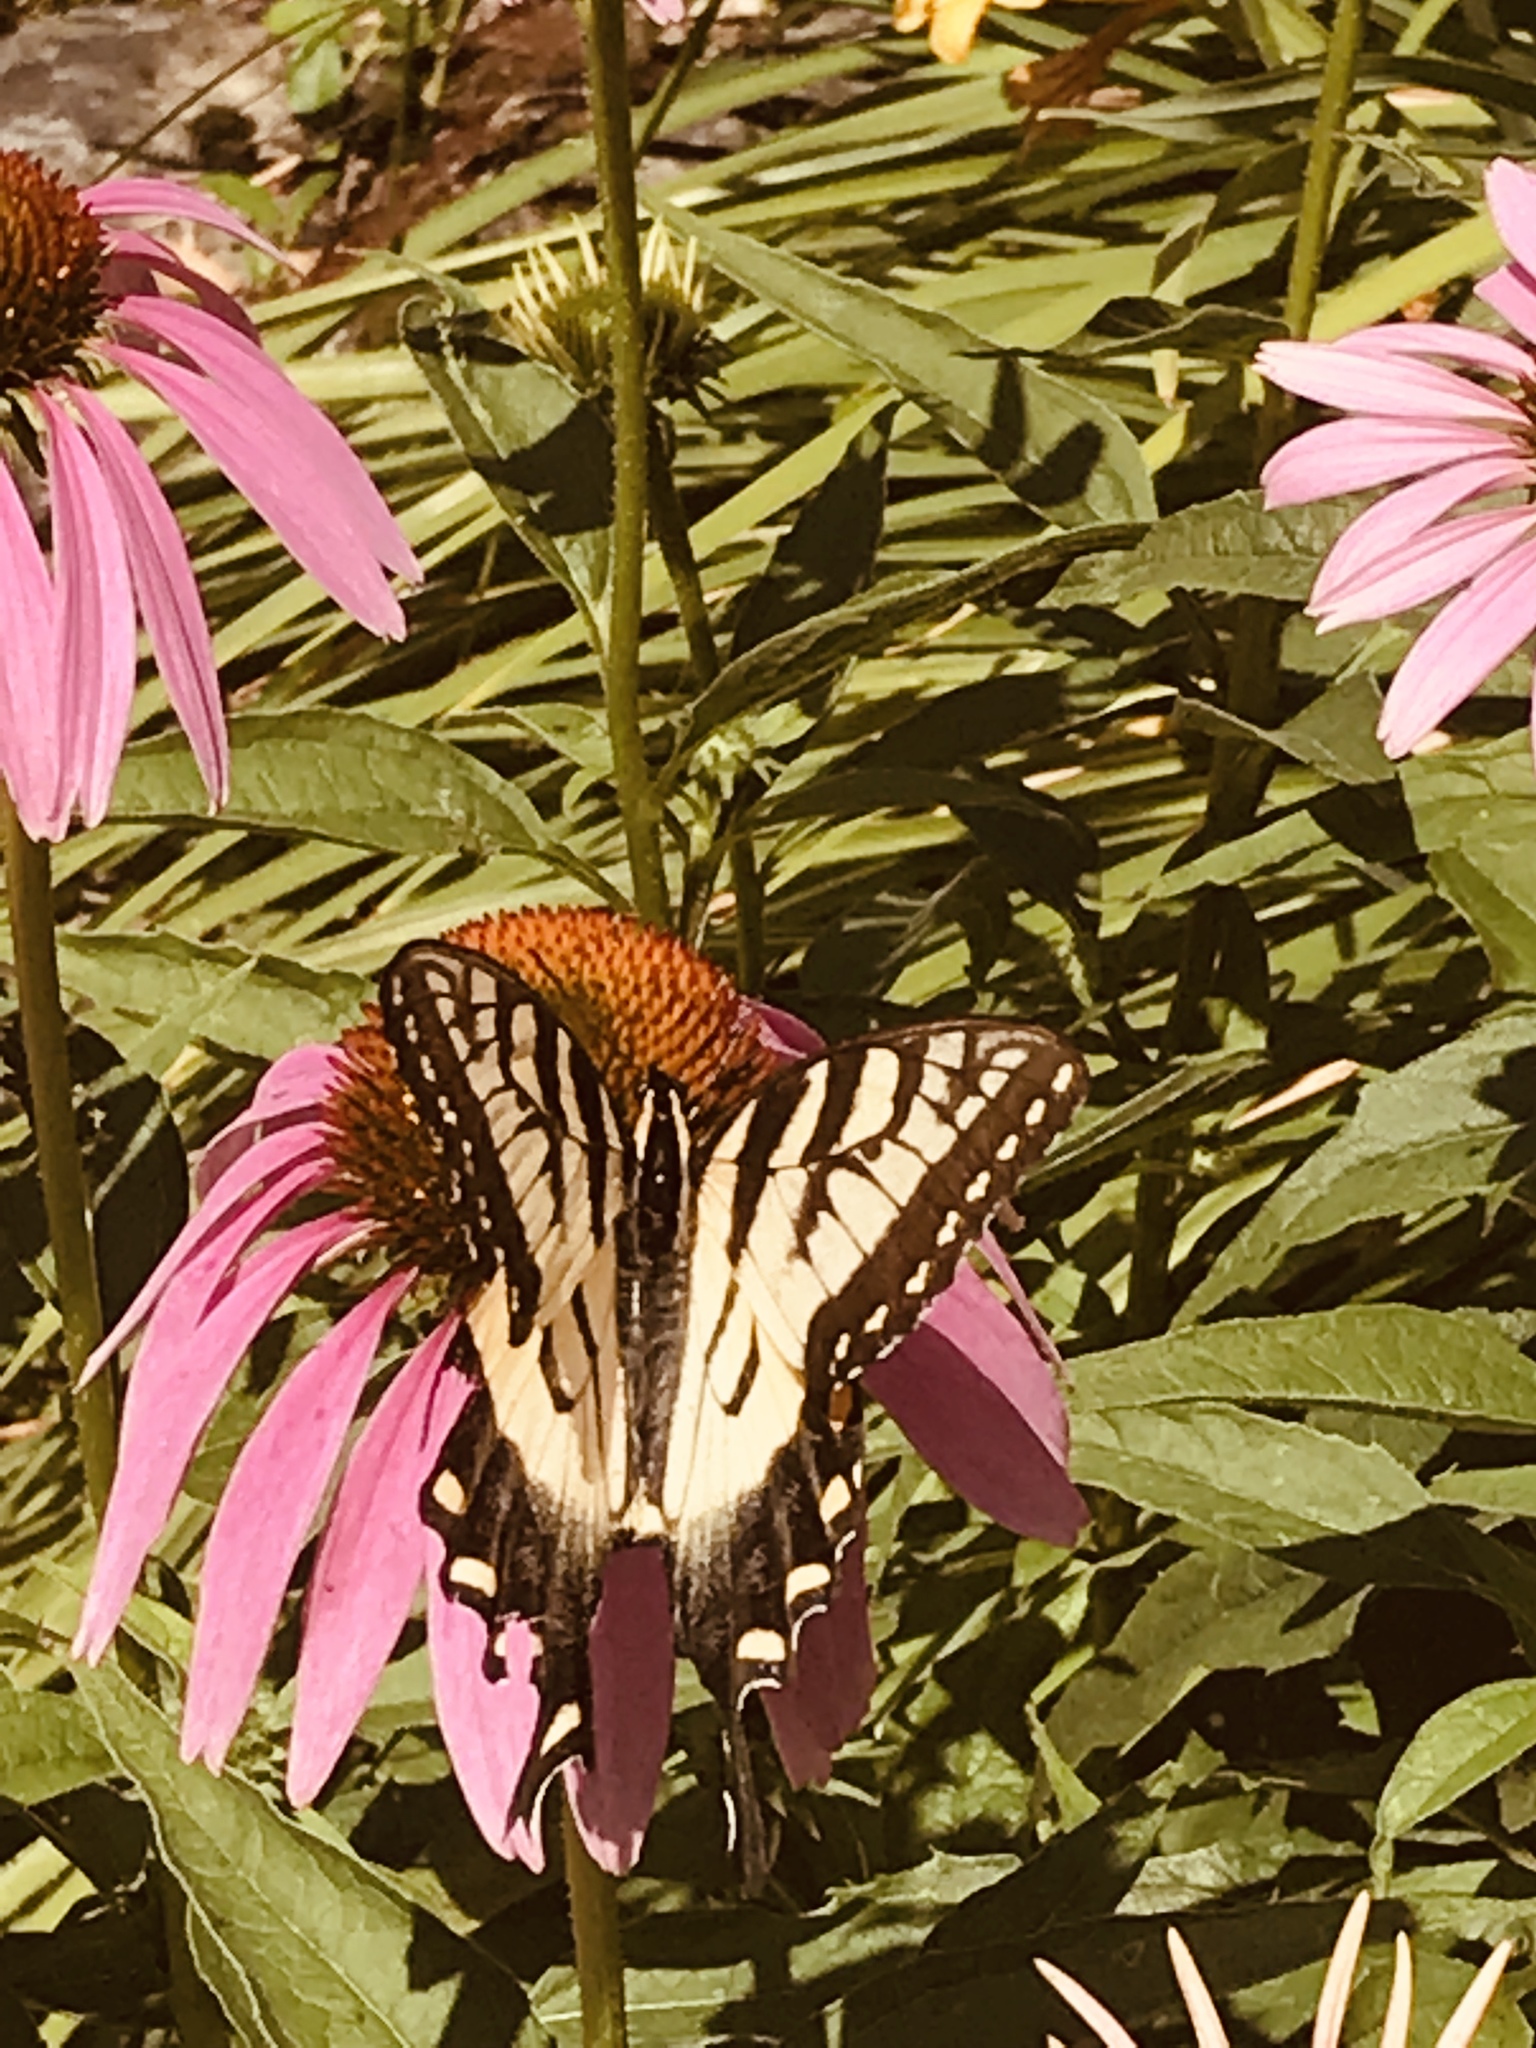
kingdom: Animalia
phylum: Arthropoda
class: Insecta
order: Lepidoptera
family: Papilionidae
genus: Papilio
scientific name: Papilio
